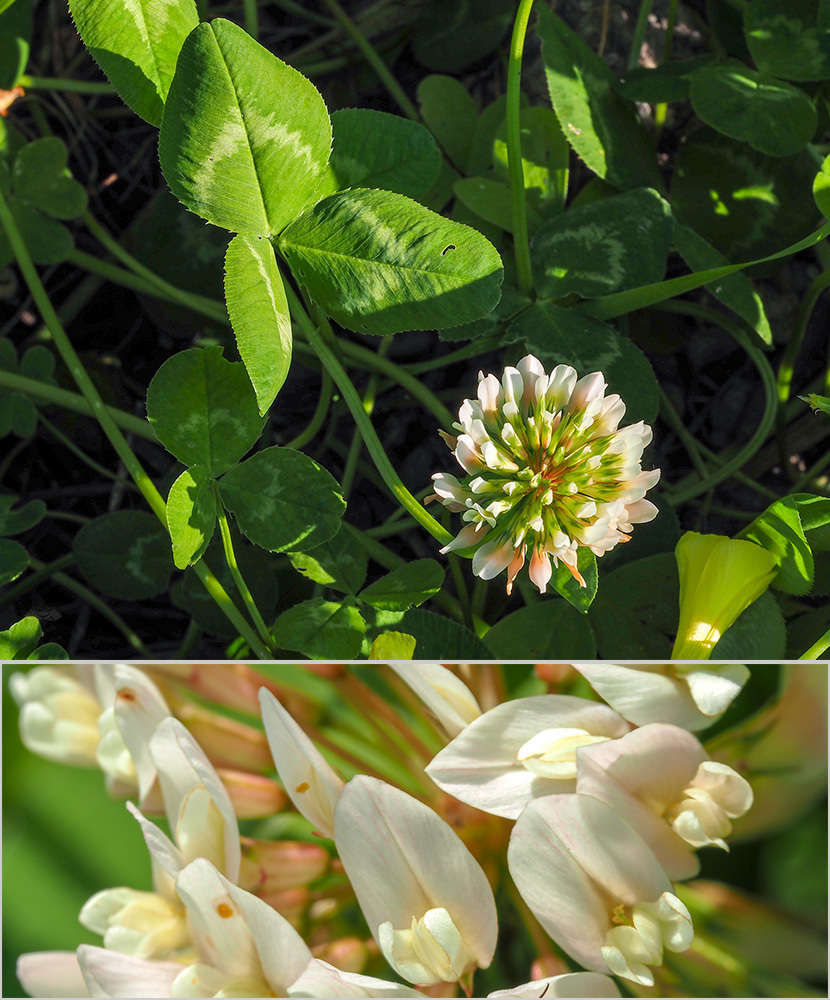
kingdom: Plantae
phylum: Tracheophyta
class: Magnoliopsida
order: Fabales
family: Fabaceae
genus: Trifolium
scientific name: Trifolium repens
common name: White clover
